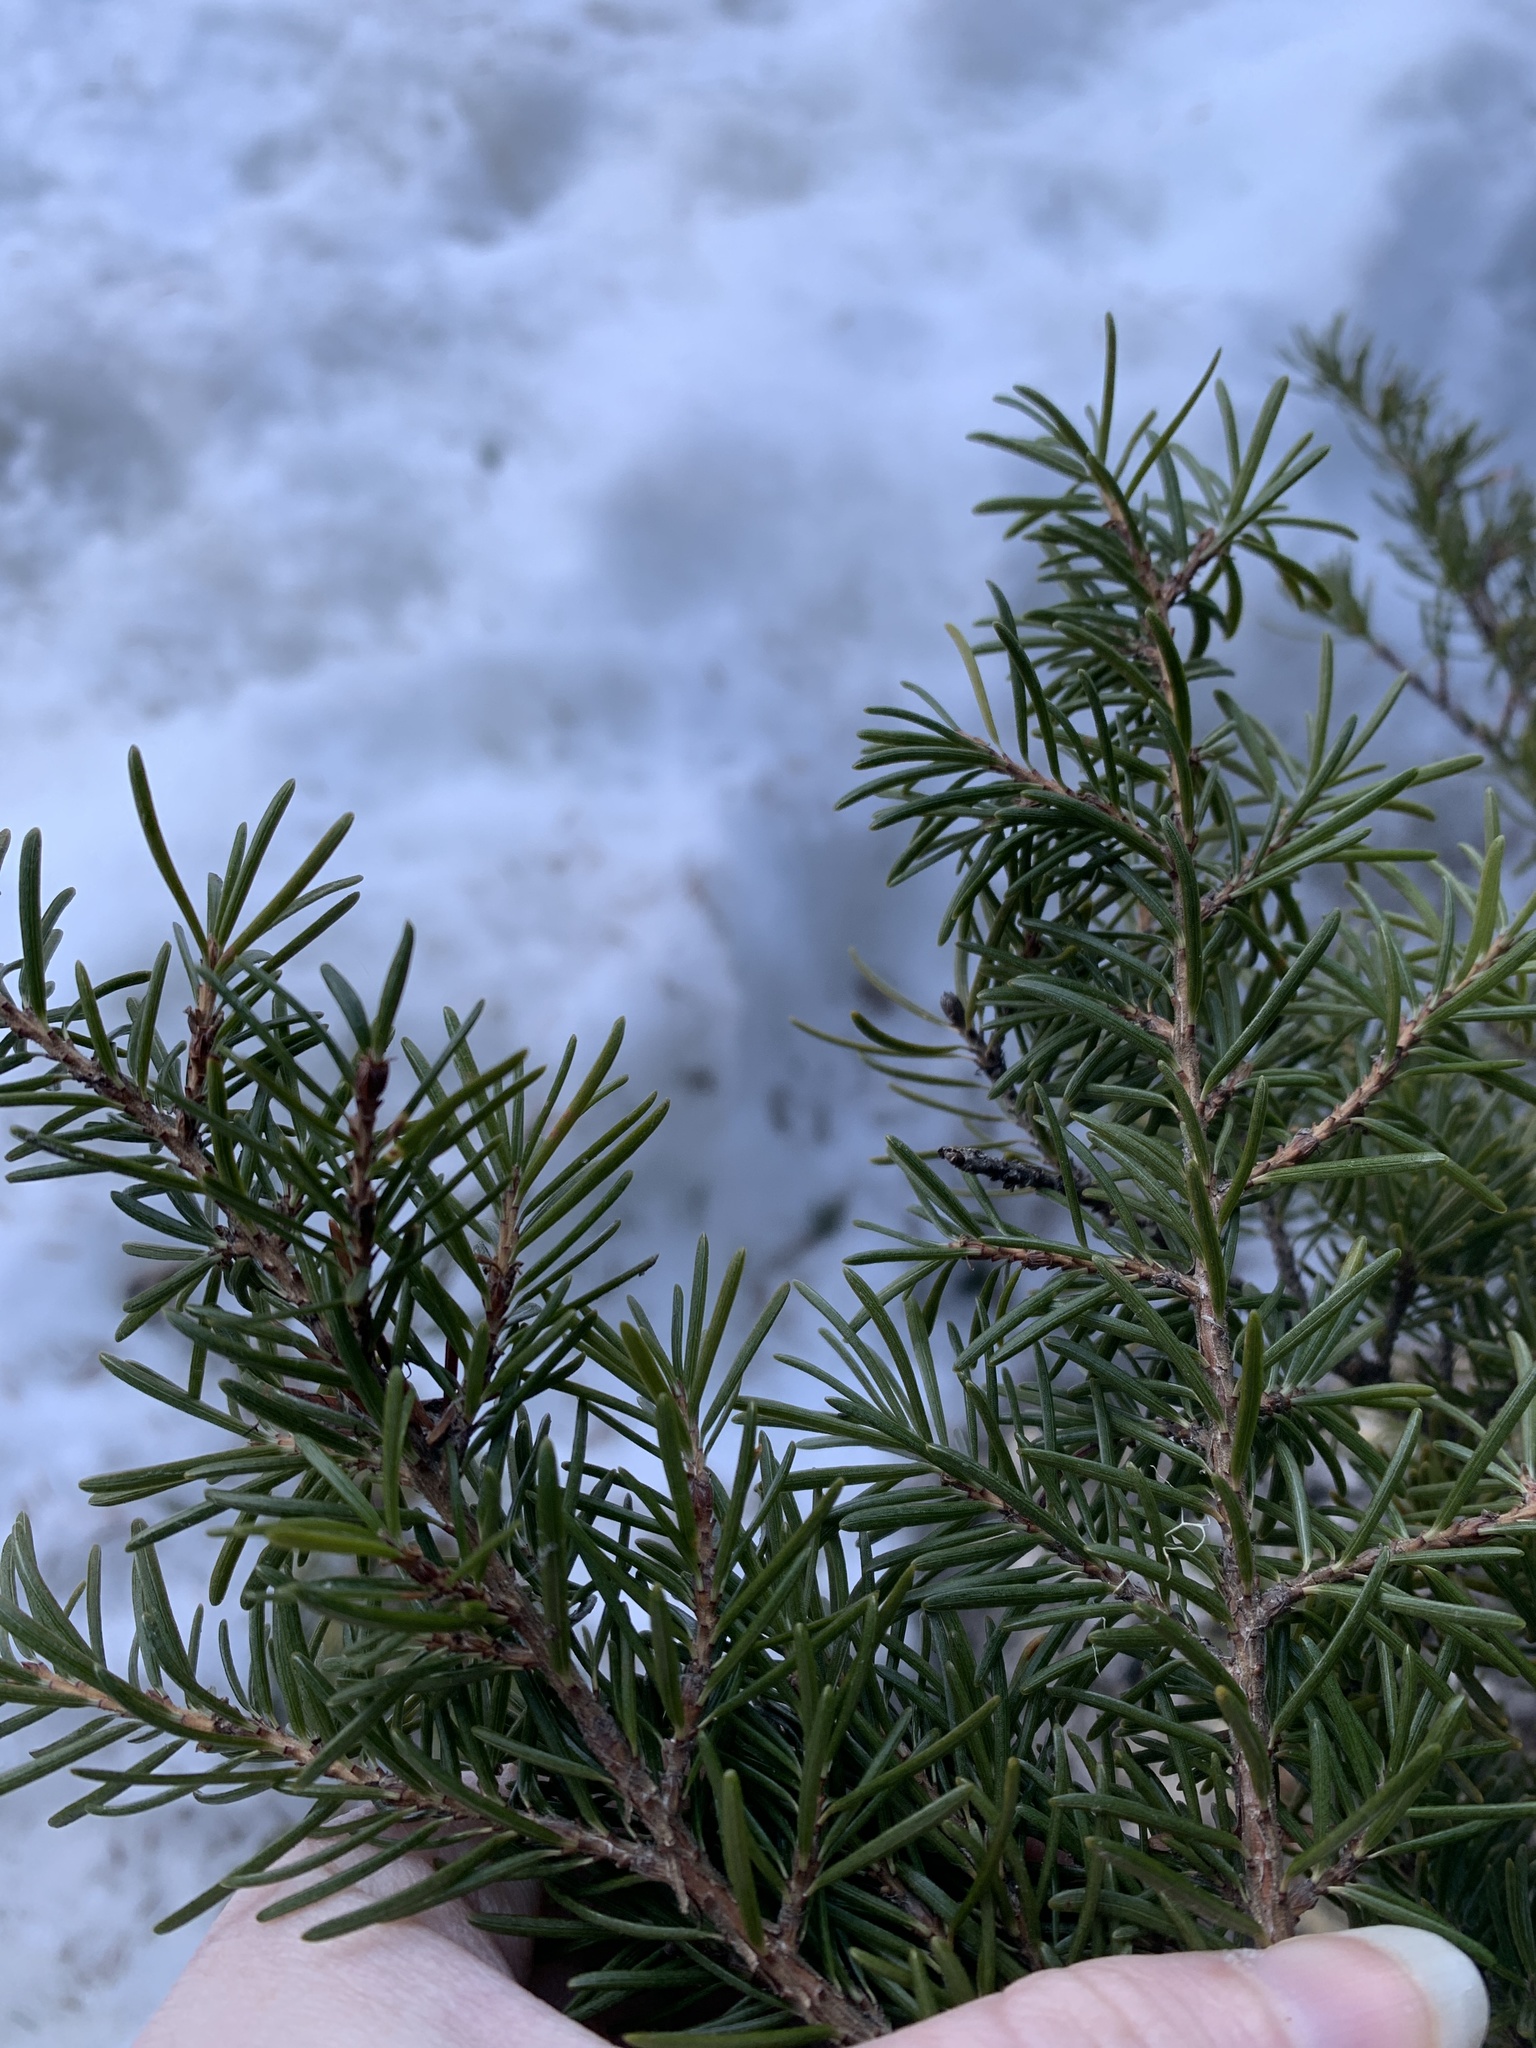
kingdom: Plantae
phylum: Tracheophyta
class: Pinopsida
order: Pinales
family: Pinaceae
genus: Tsuga
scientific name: Tsuga mertensiana
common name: Mountain hemlock
